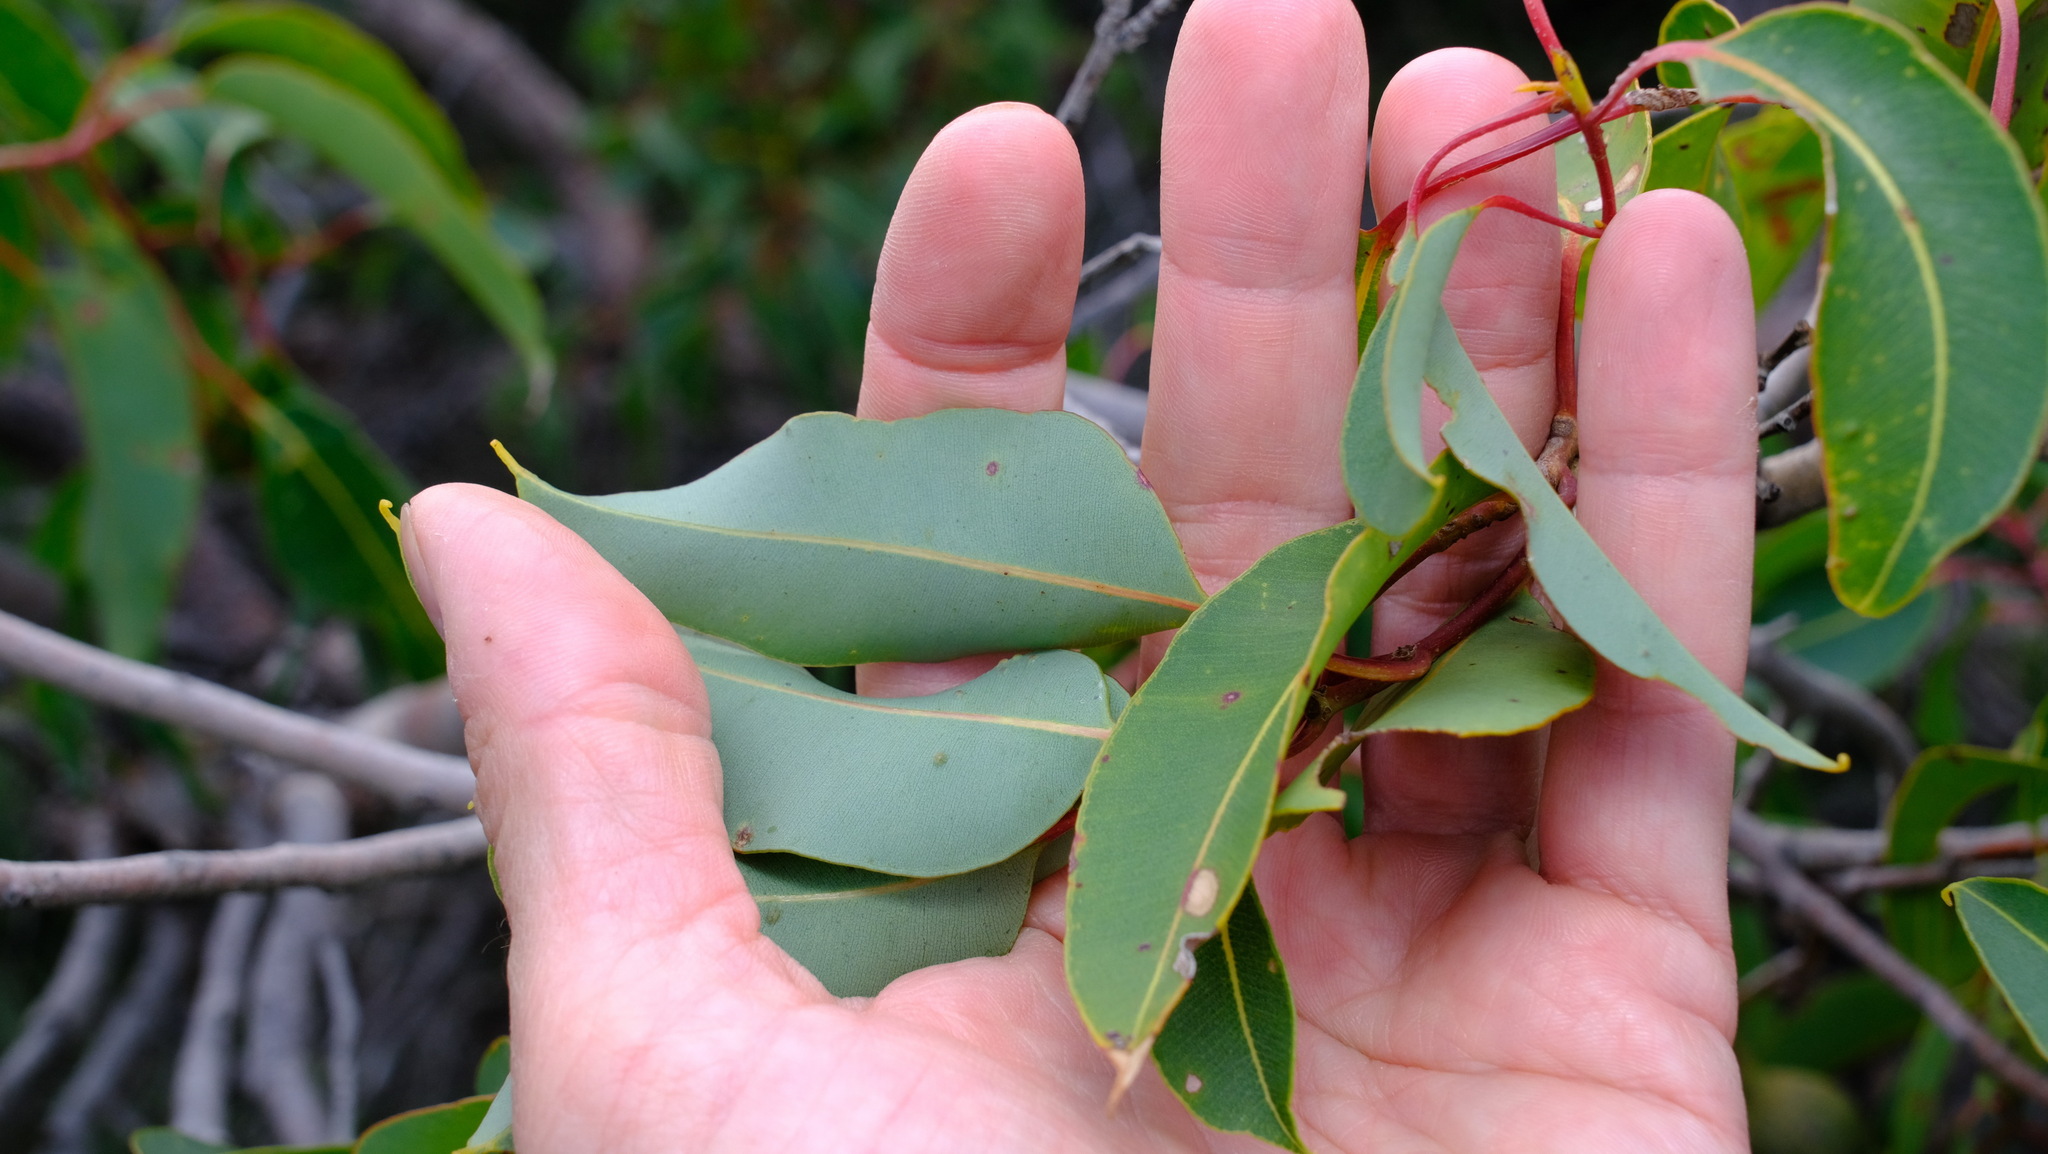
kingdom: Plantae
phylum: Tracheophyta
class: Magnoliopsida
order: Myrtales
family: Myrtaceae
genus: Corymbia
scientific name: Corymbia calophylla
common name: Marri
